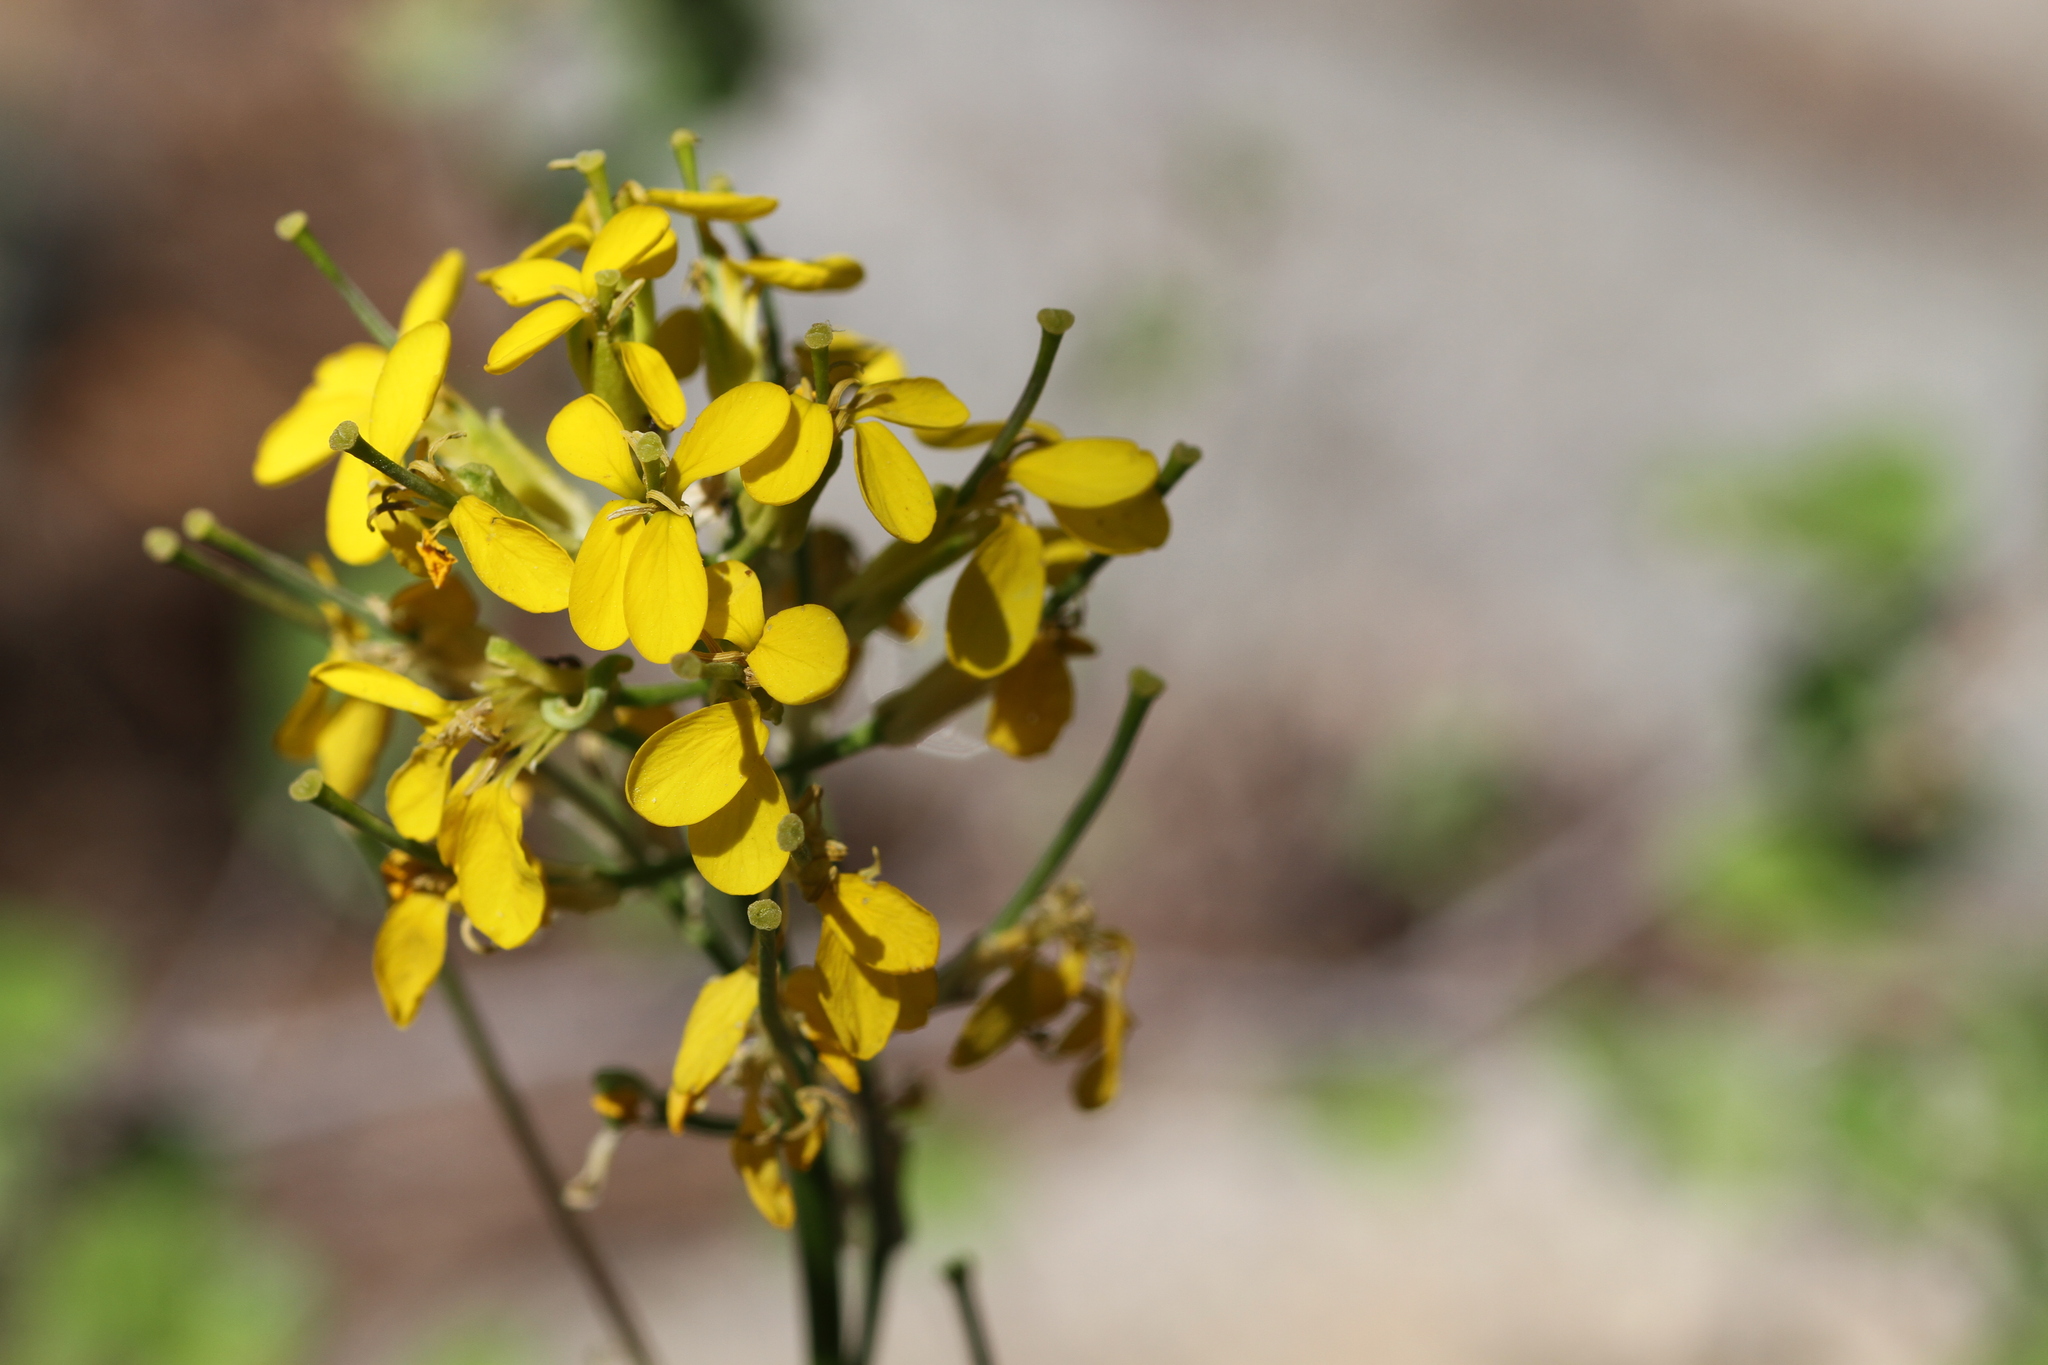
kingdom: Plantae
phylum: Tracheophyta
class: Magnoliopsida
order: Brassicales
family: Brassicaceae
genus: Erysimum
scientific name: Erysimum capitatum
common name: Western wallflower
